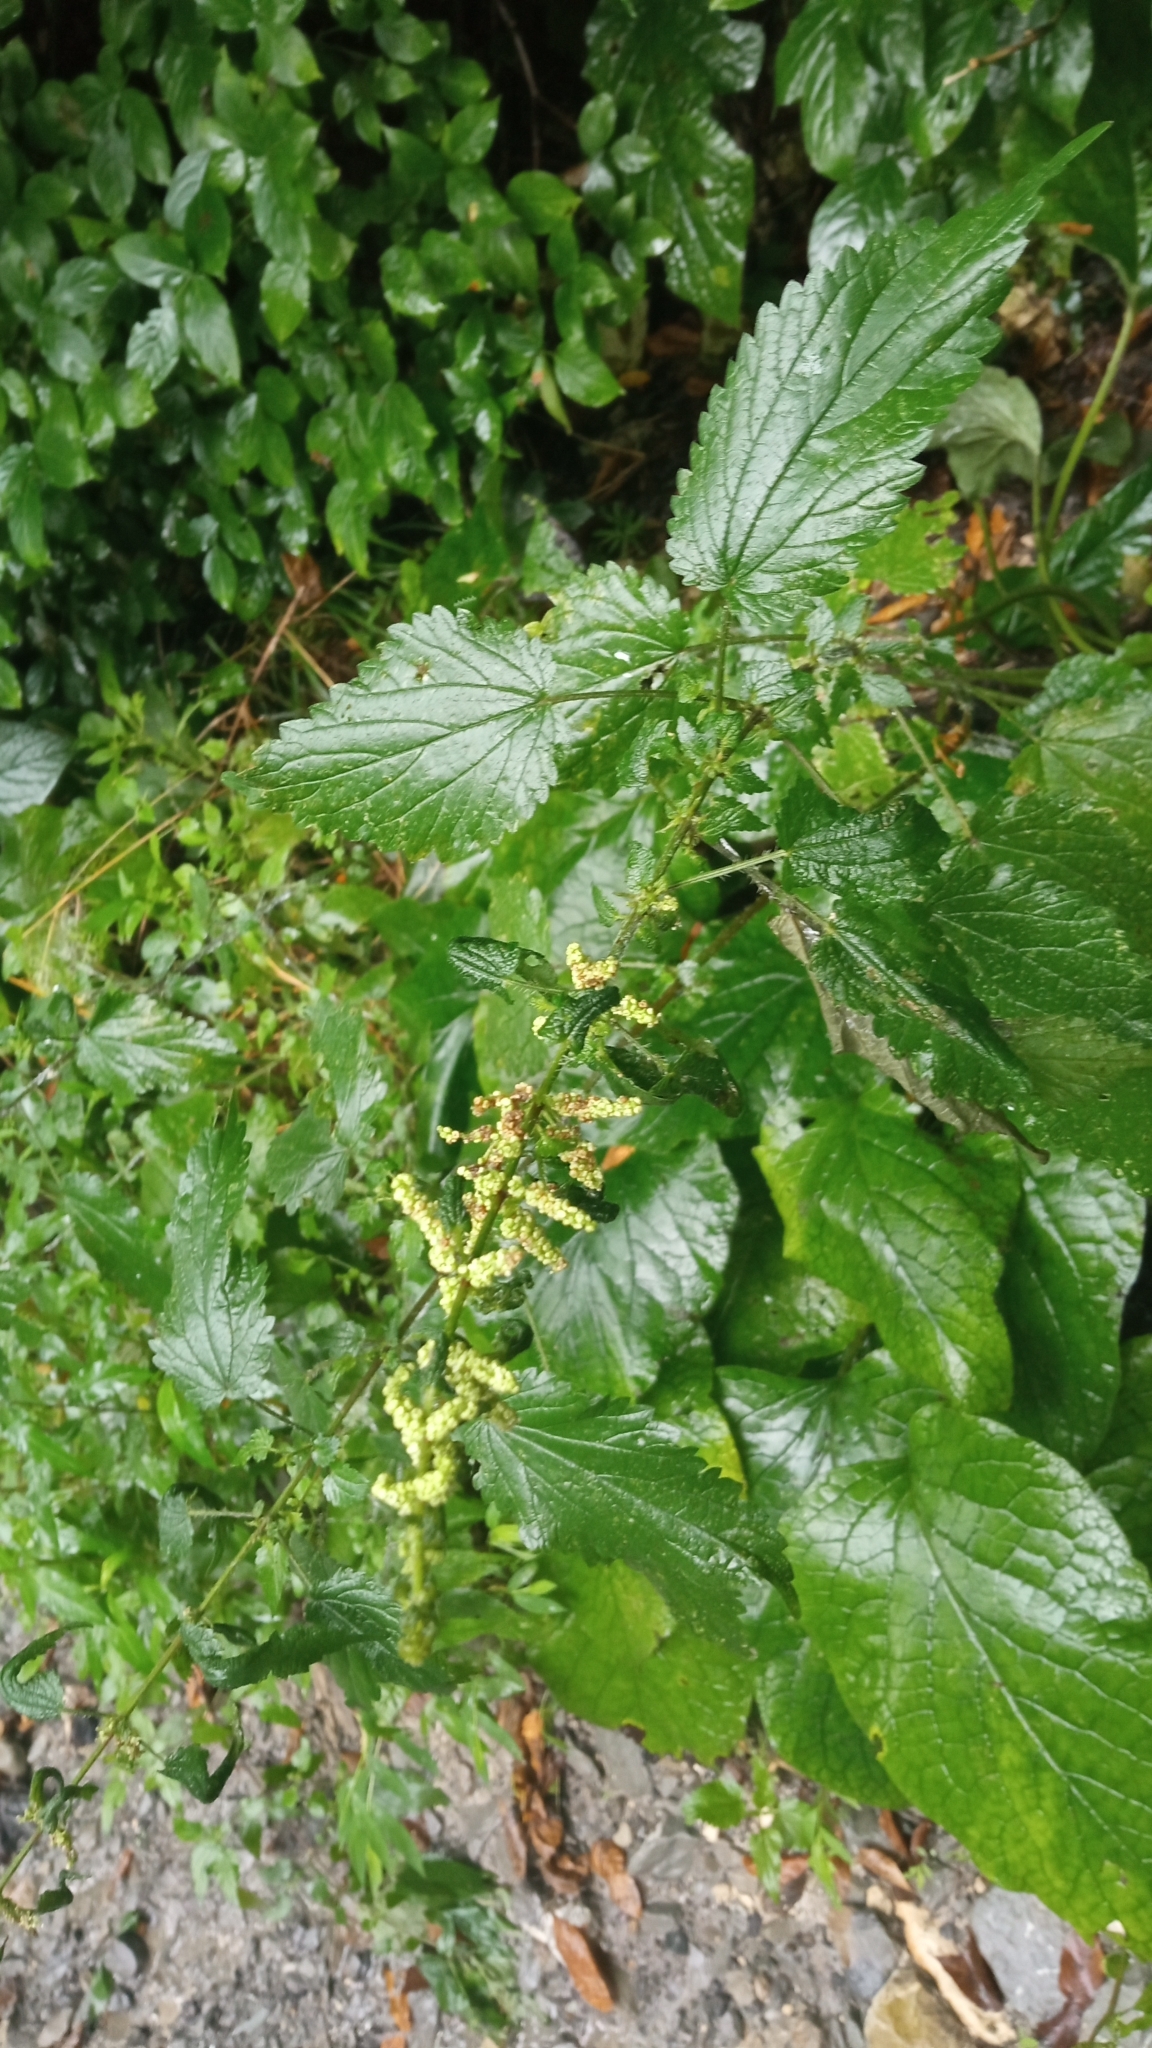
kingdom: Plantae
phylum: Tracheophyta
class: Magnoliopsida
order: Rosales
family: Urticaceae
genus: Urtica
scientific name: Urtica dioica
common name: Common nettle
